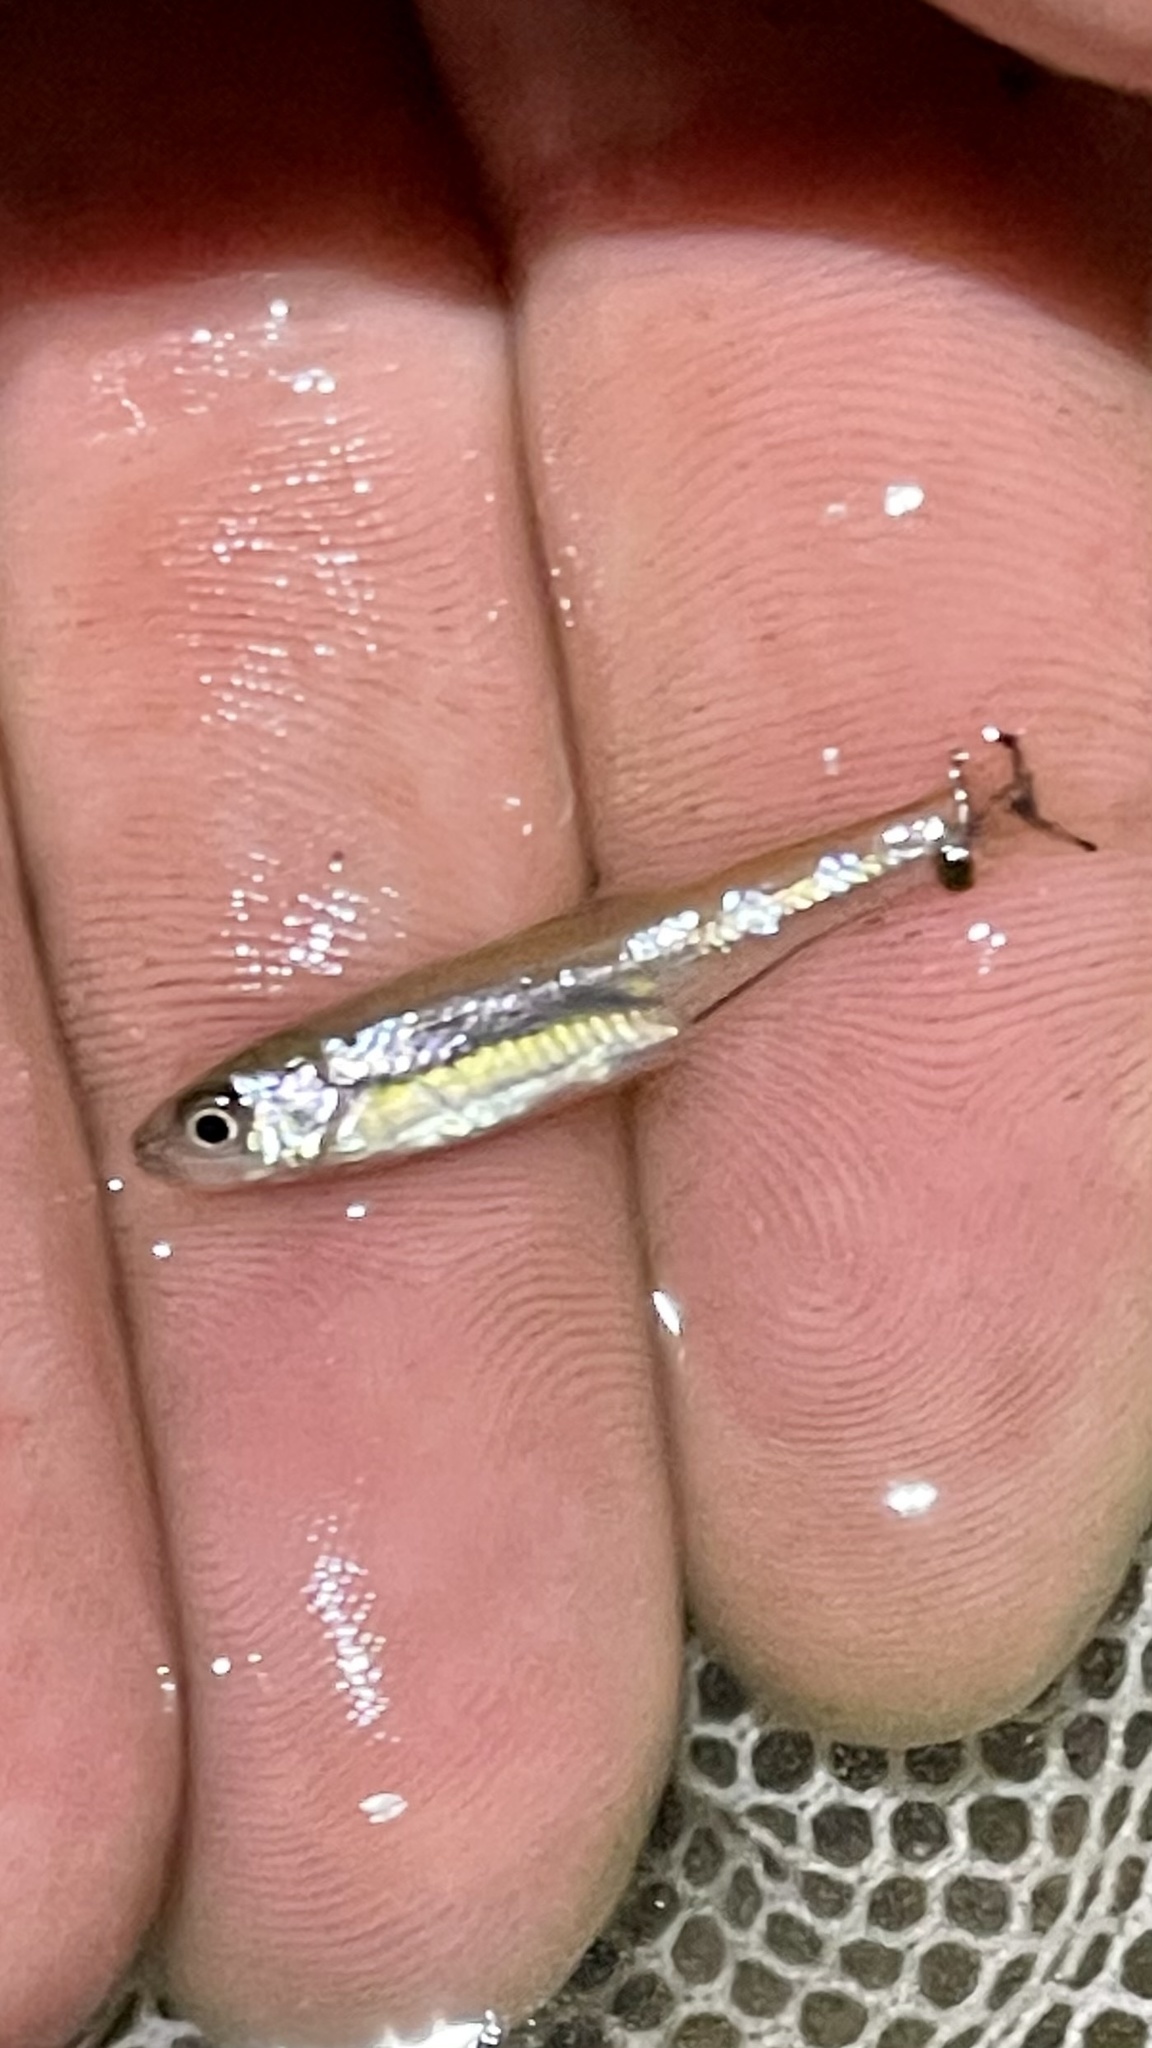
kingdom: Animalia
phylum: Chordata
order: Cypriniformes
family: Cyprinidae
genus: Luxilus
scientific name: Luxilus cornutus
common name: Common shiner
